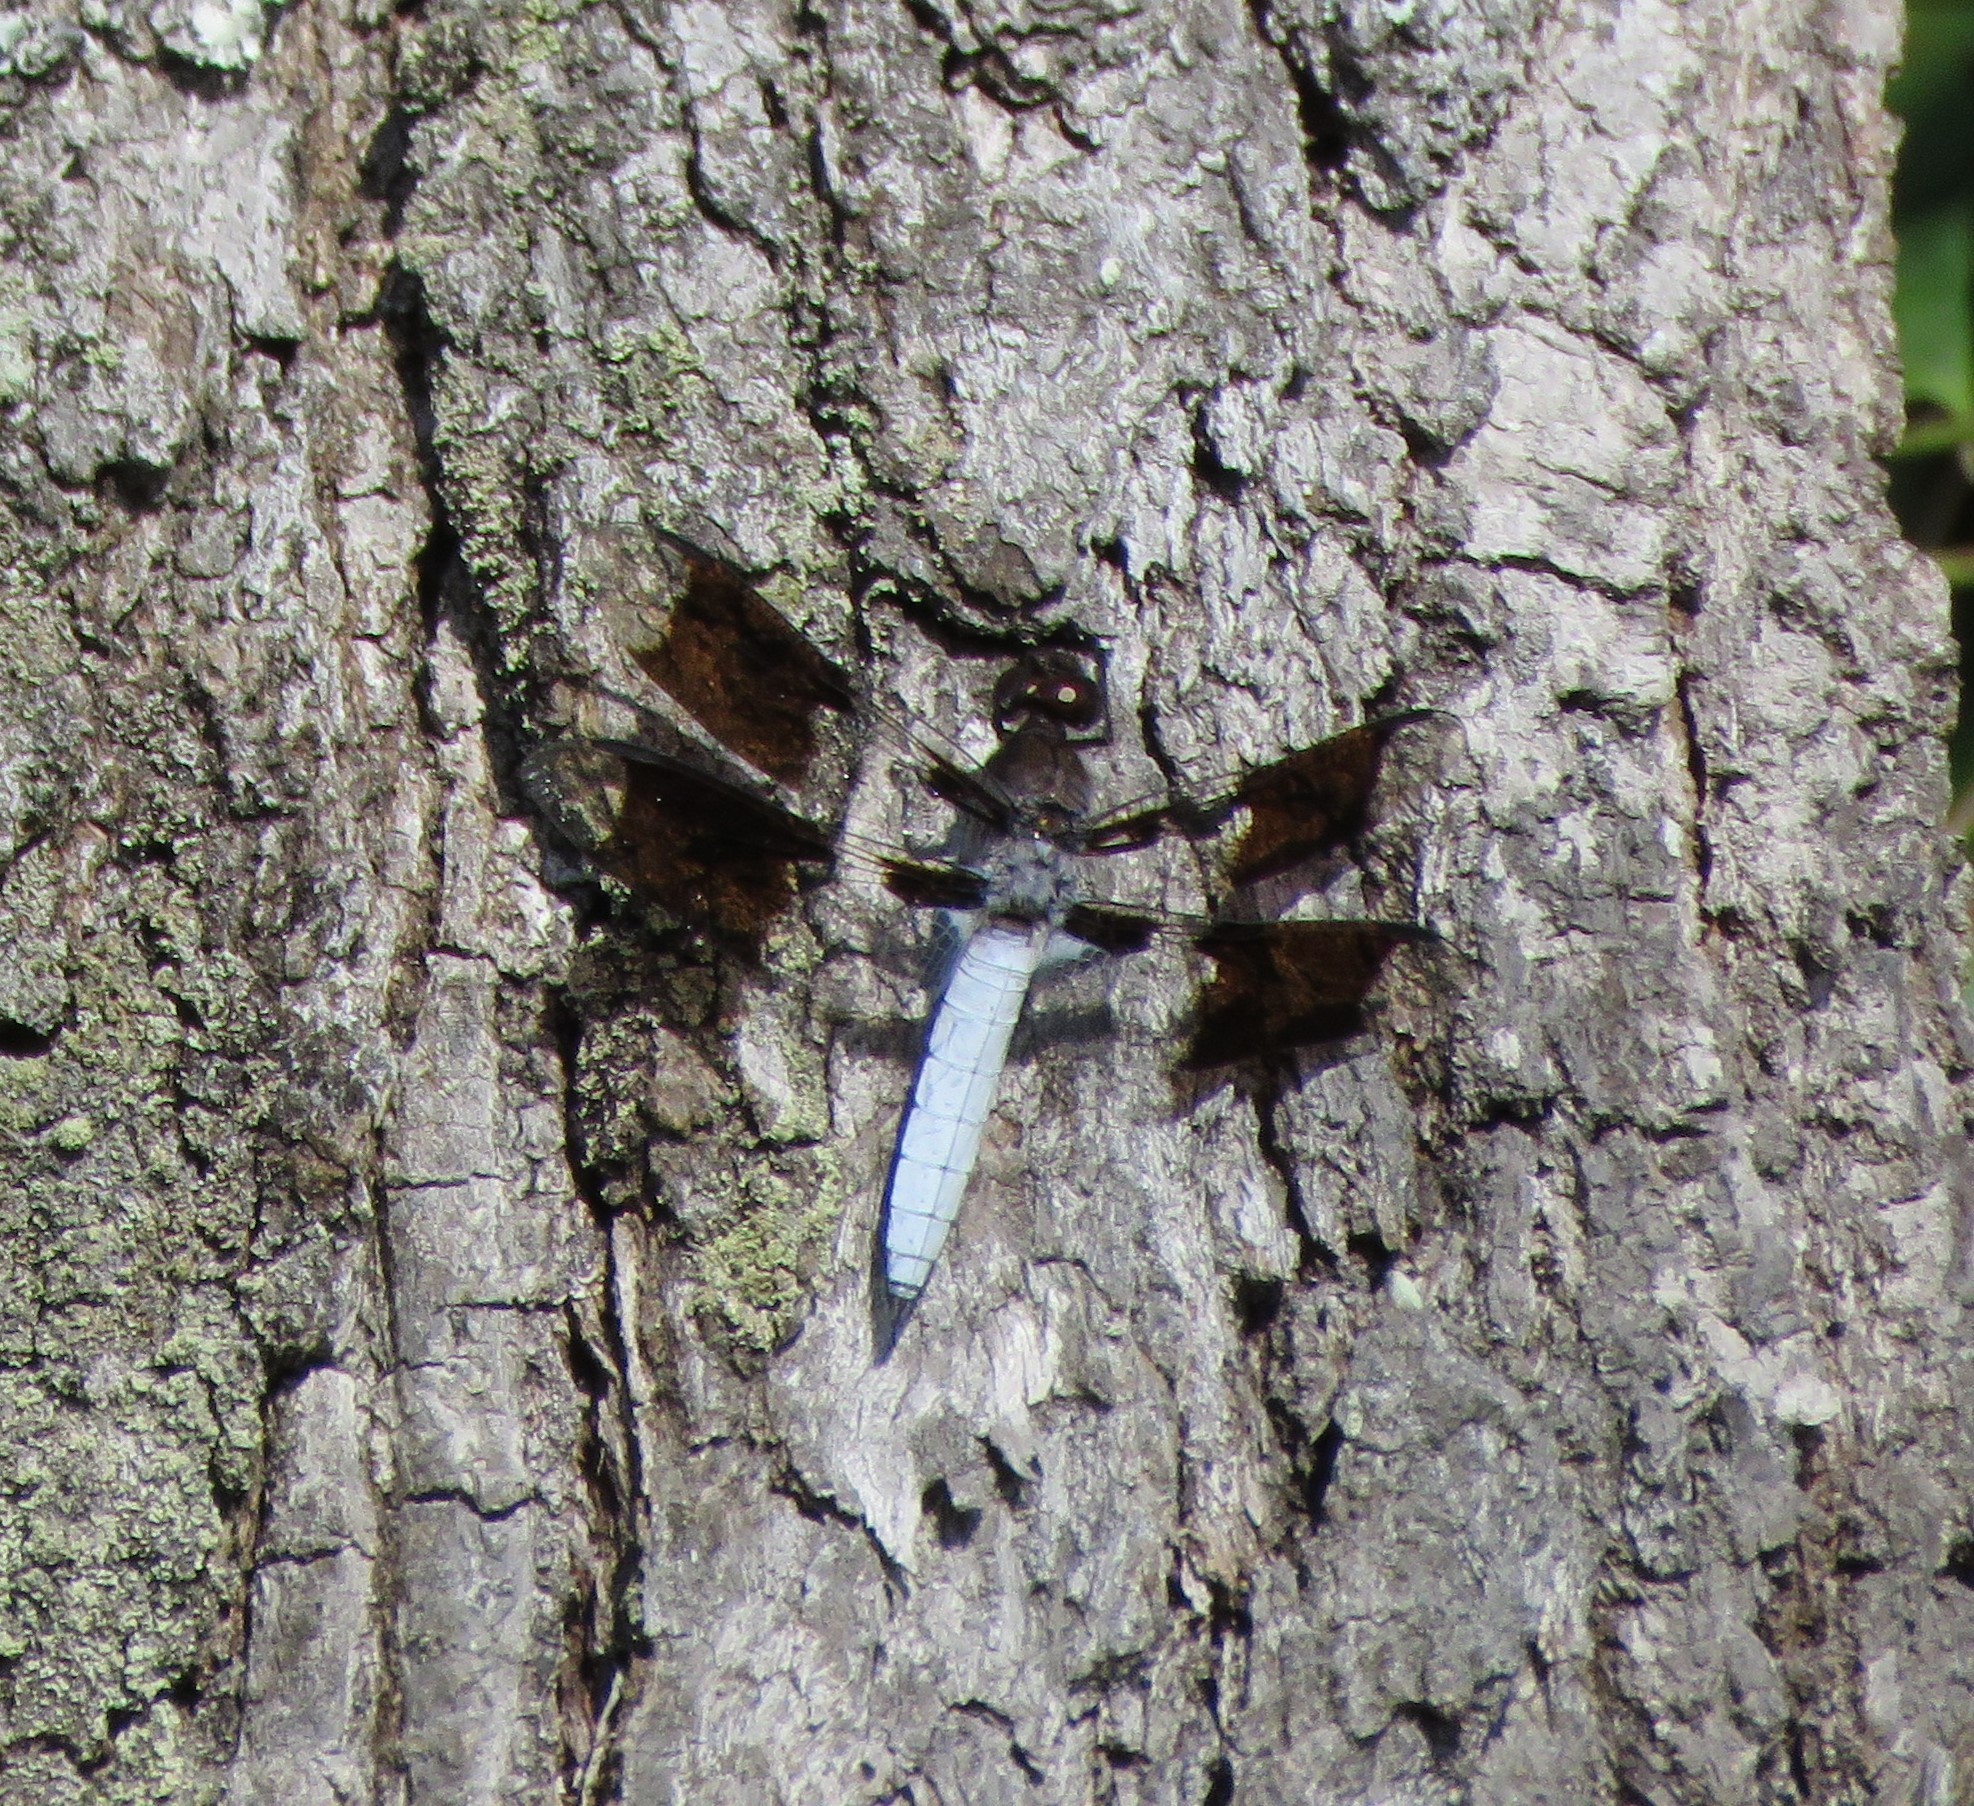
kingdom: Animalia
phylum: Arthropoda
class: Insecta
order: Odonata
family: Libellulidae
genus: Plathemis
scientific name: Plathemis lydia
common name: Common whitetail
